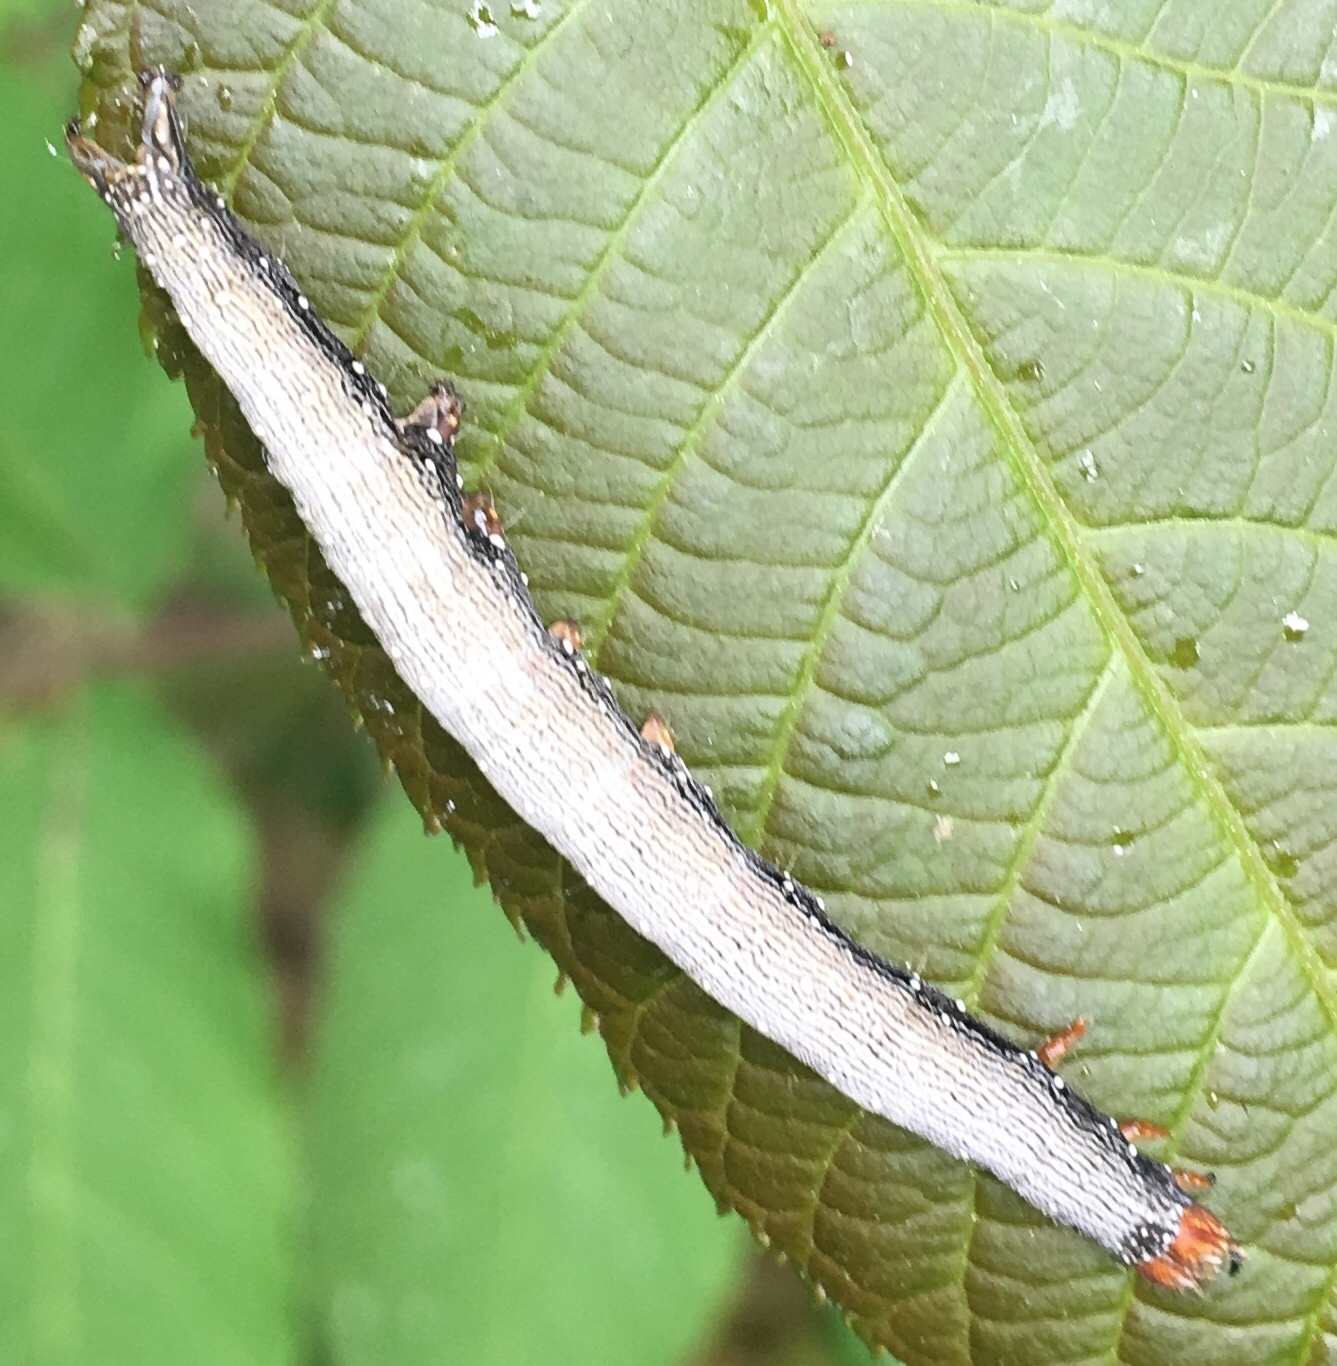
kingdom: Animalia
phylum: Arthropoda
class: Insecta
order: Lepidoptera
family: Erebidae
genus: Catocala
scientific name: Catocala piatrix
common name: The penitent underwing
